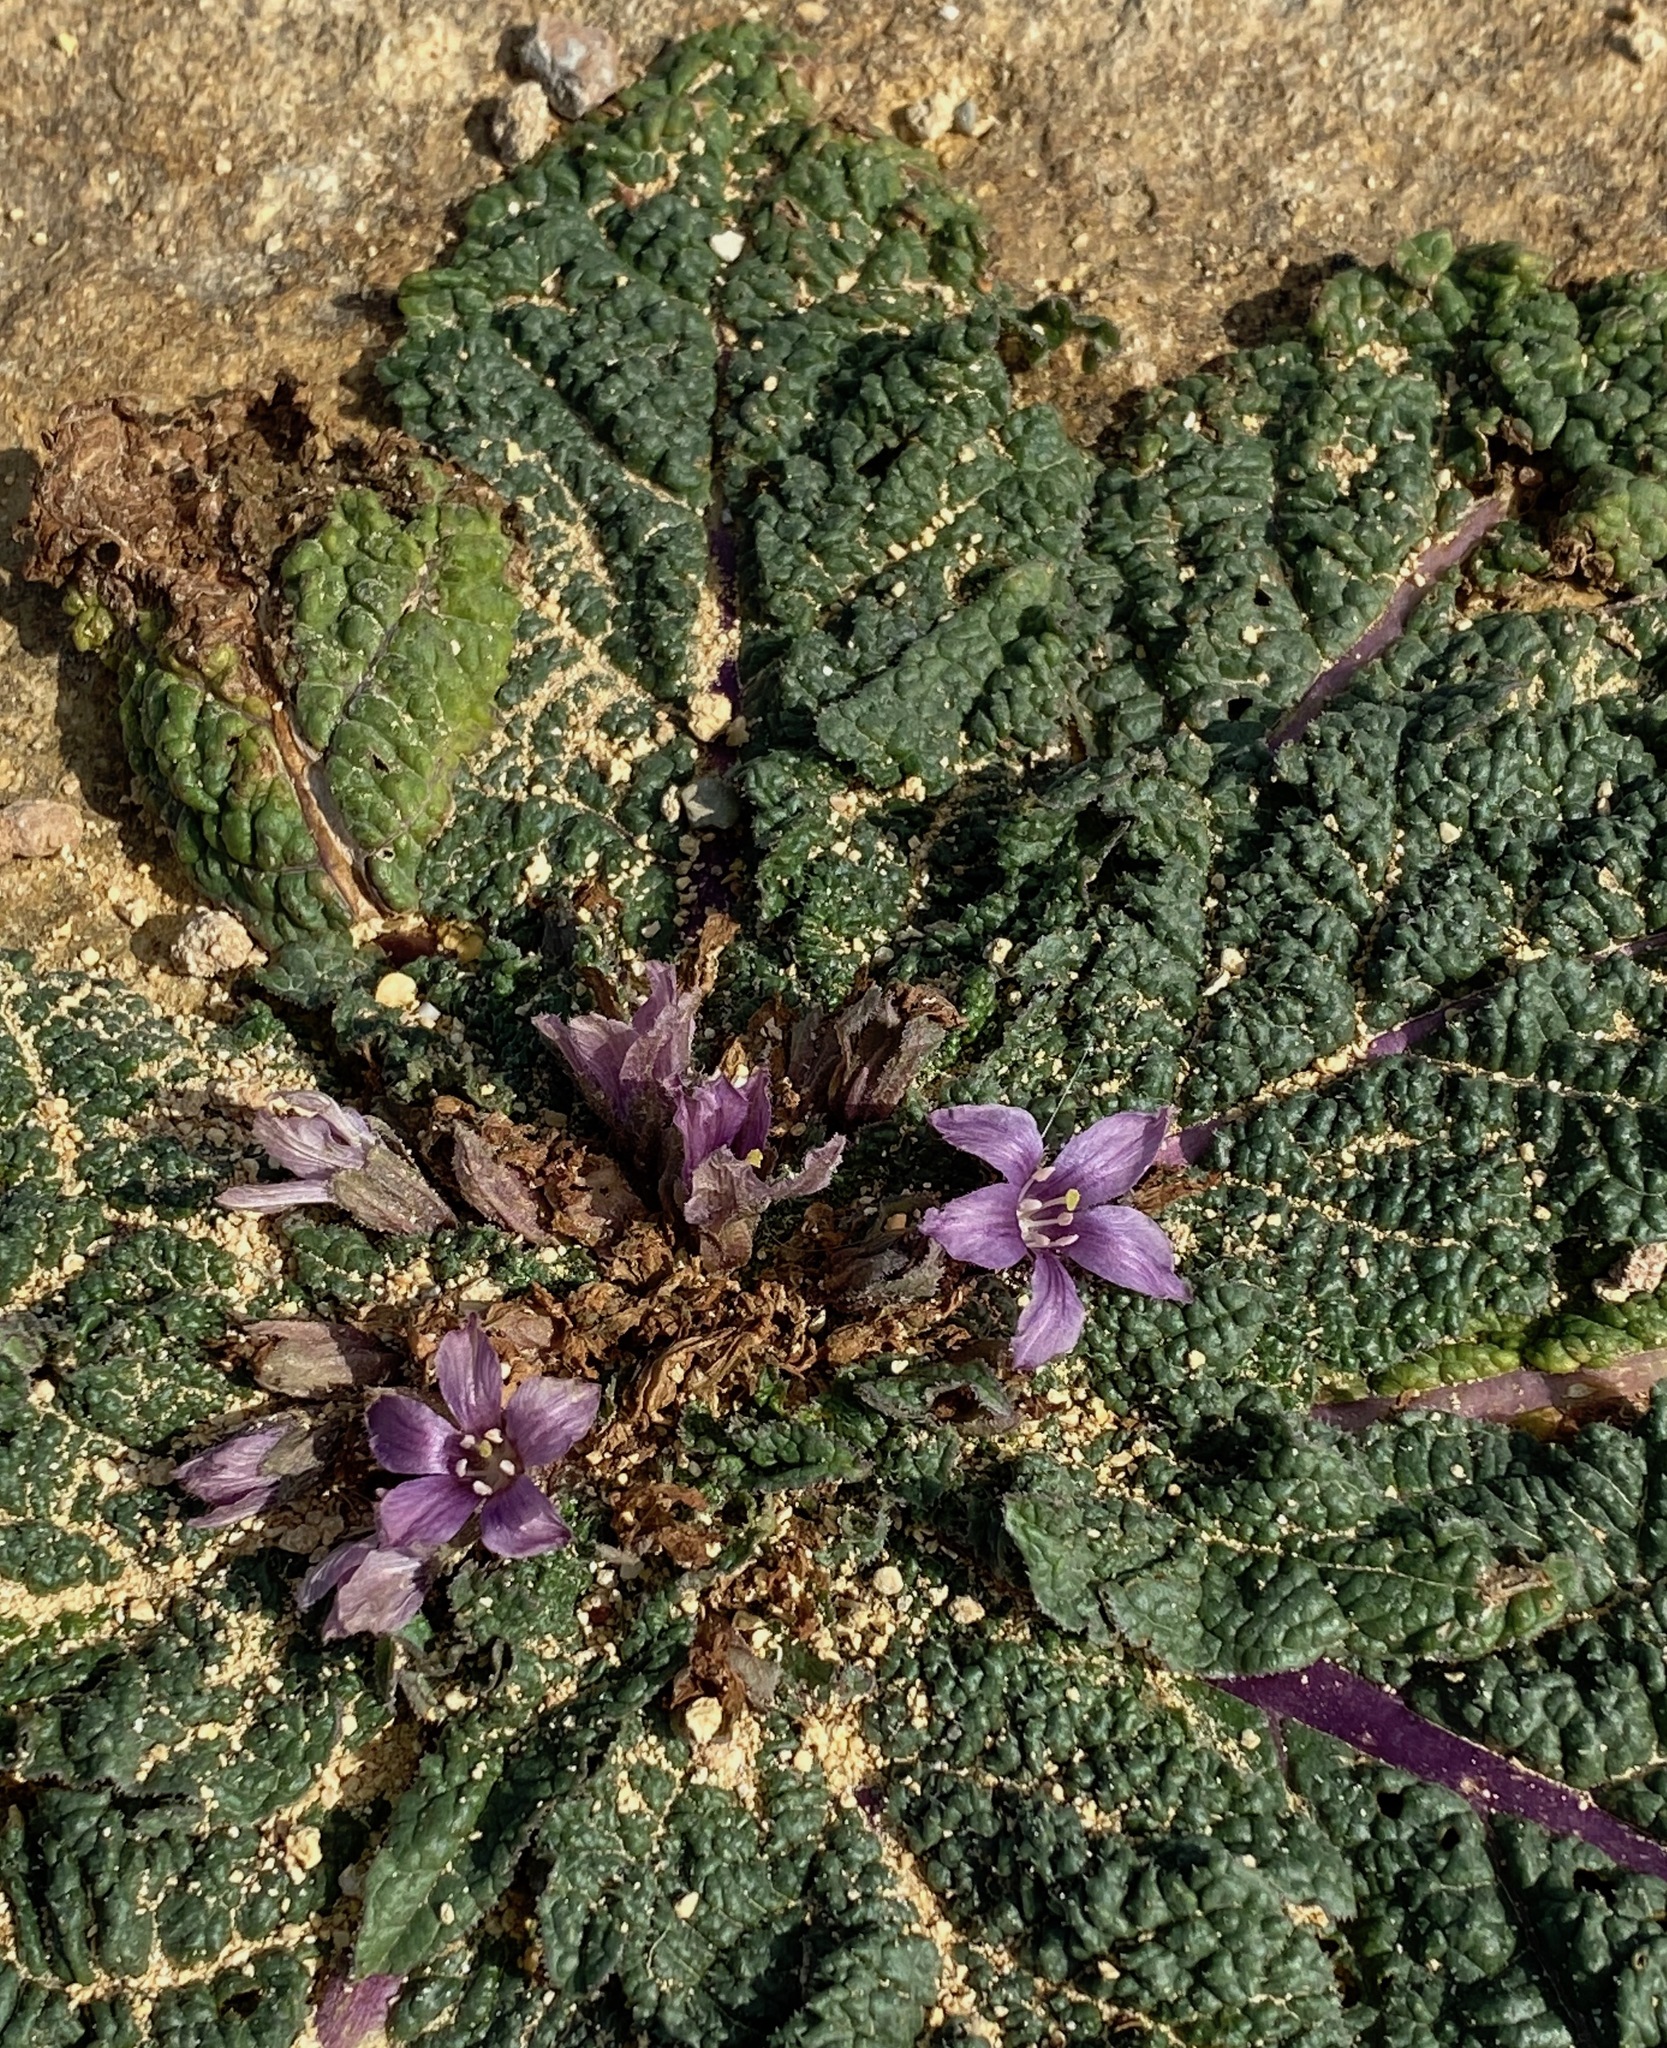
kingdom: Plantae
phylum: Tracheophyta
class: Magnoliopsida
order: Solanales
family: Solanaceae
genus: Mandragora
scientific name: Mandragora officinarum
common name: Mandrake
